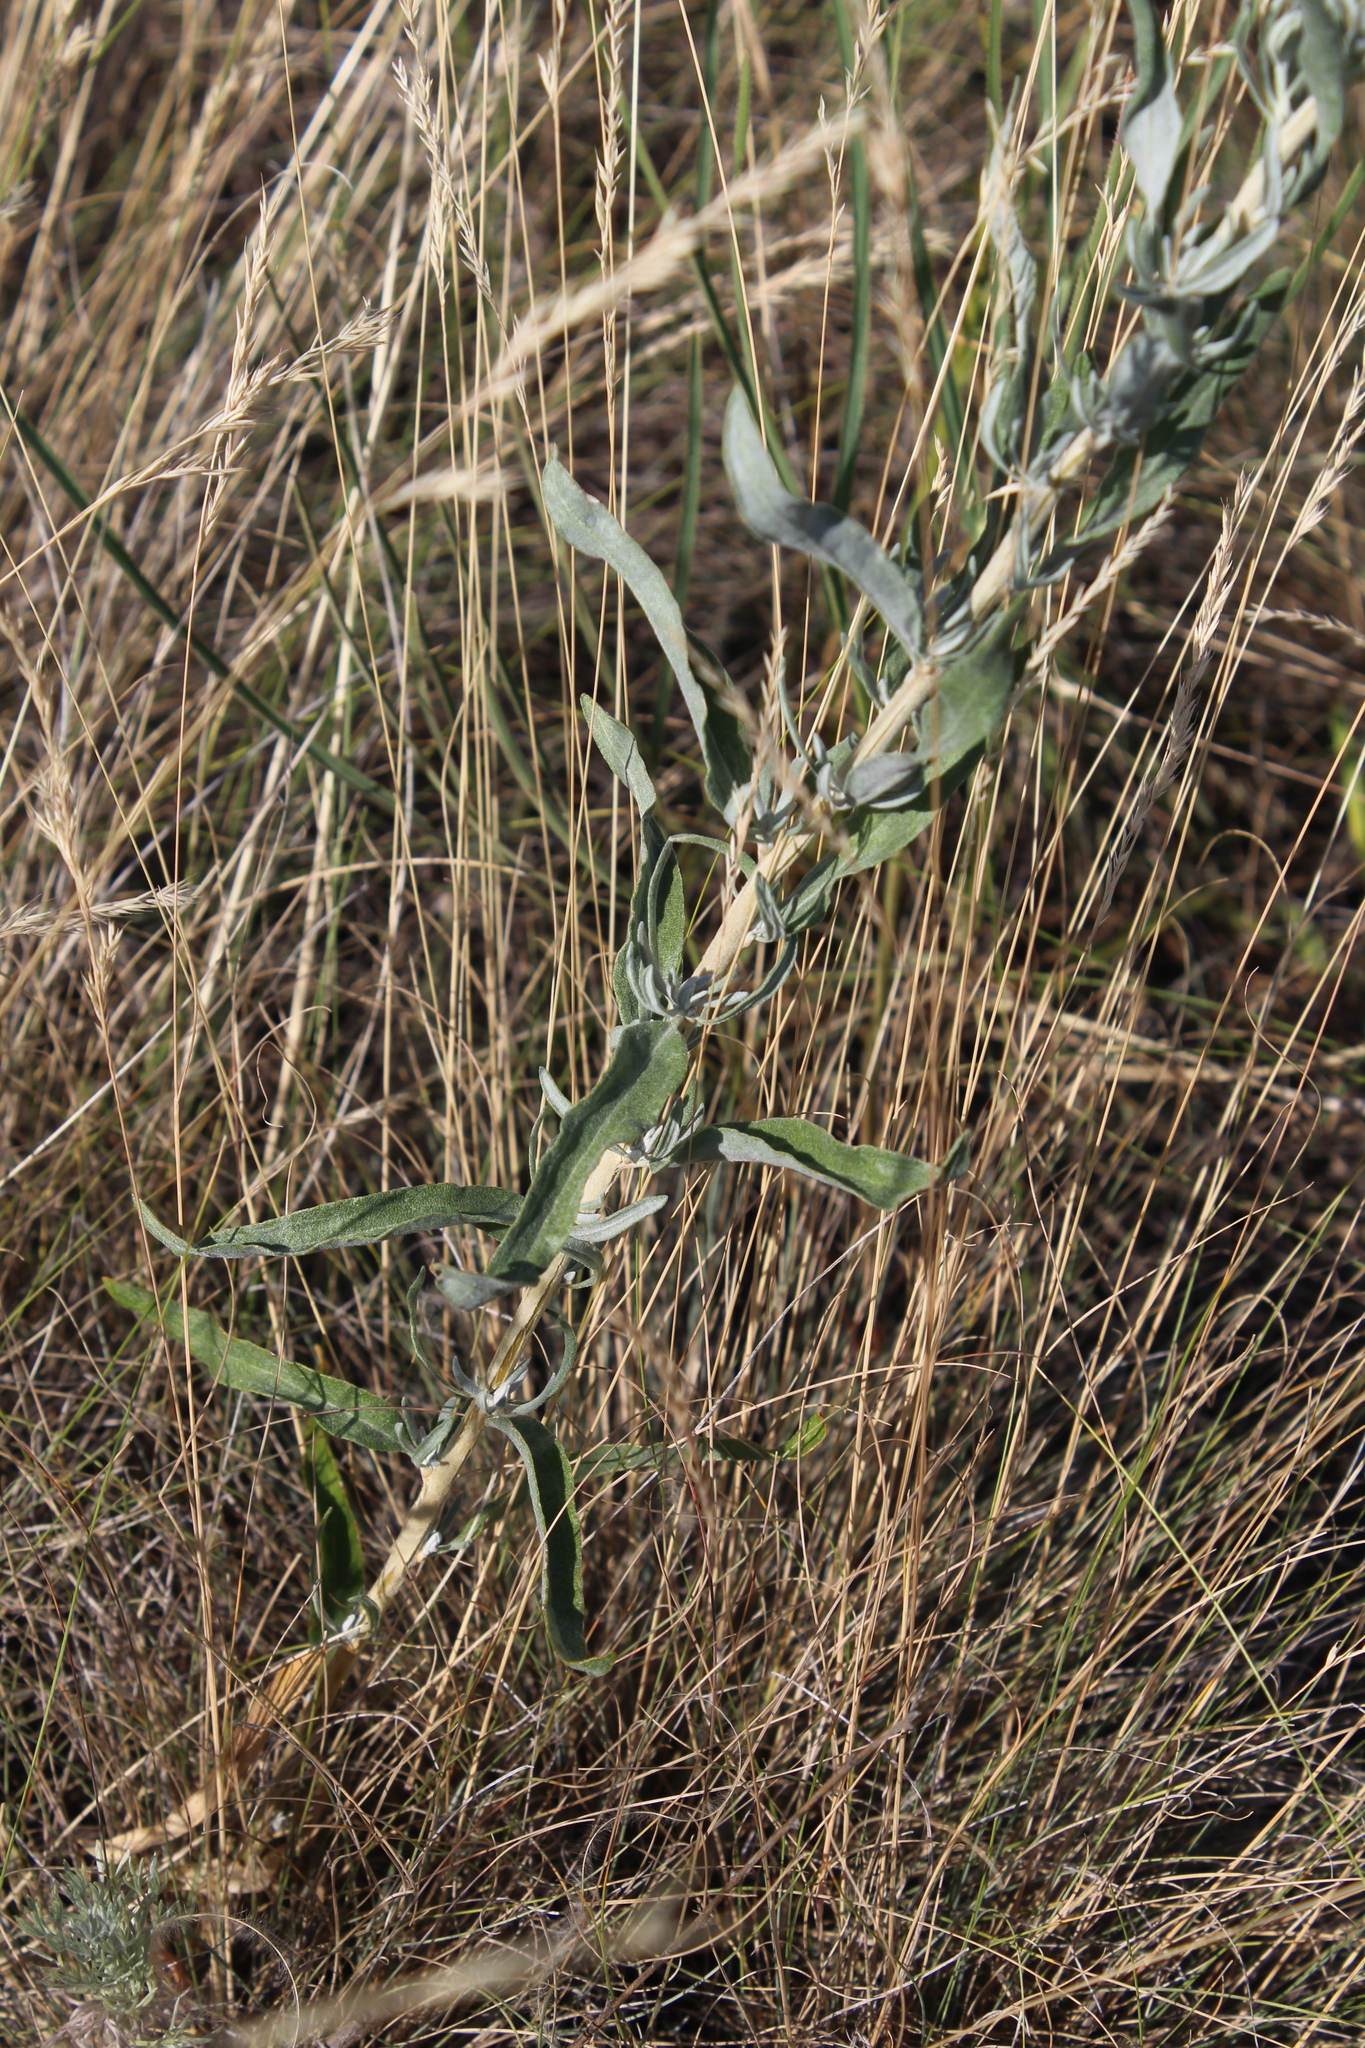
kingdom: Plantae
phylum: Tracheophyta
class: Magnoliopsida
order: Caryophyllales
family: Amaranthaceae
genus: Krascheninnikovia
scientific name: Krascheninnikovia ceratoides
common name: Pamirian winterfat
